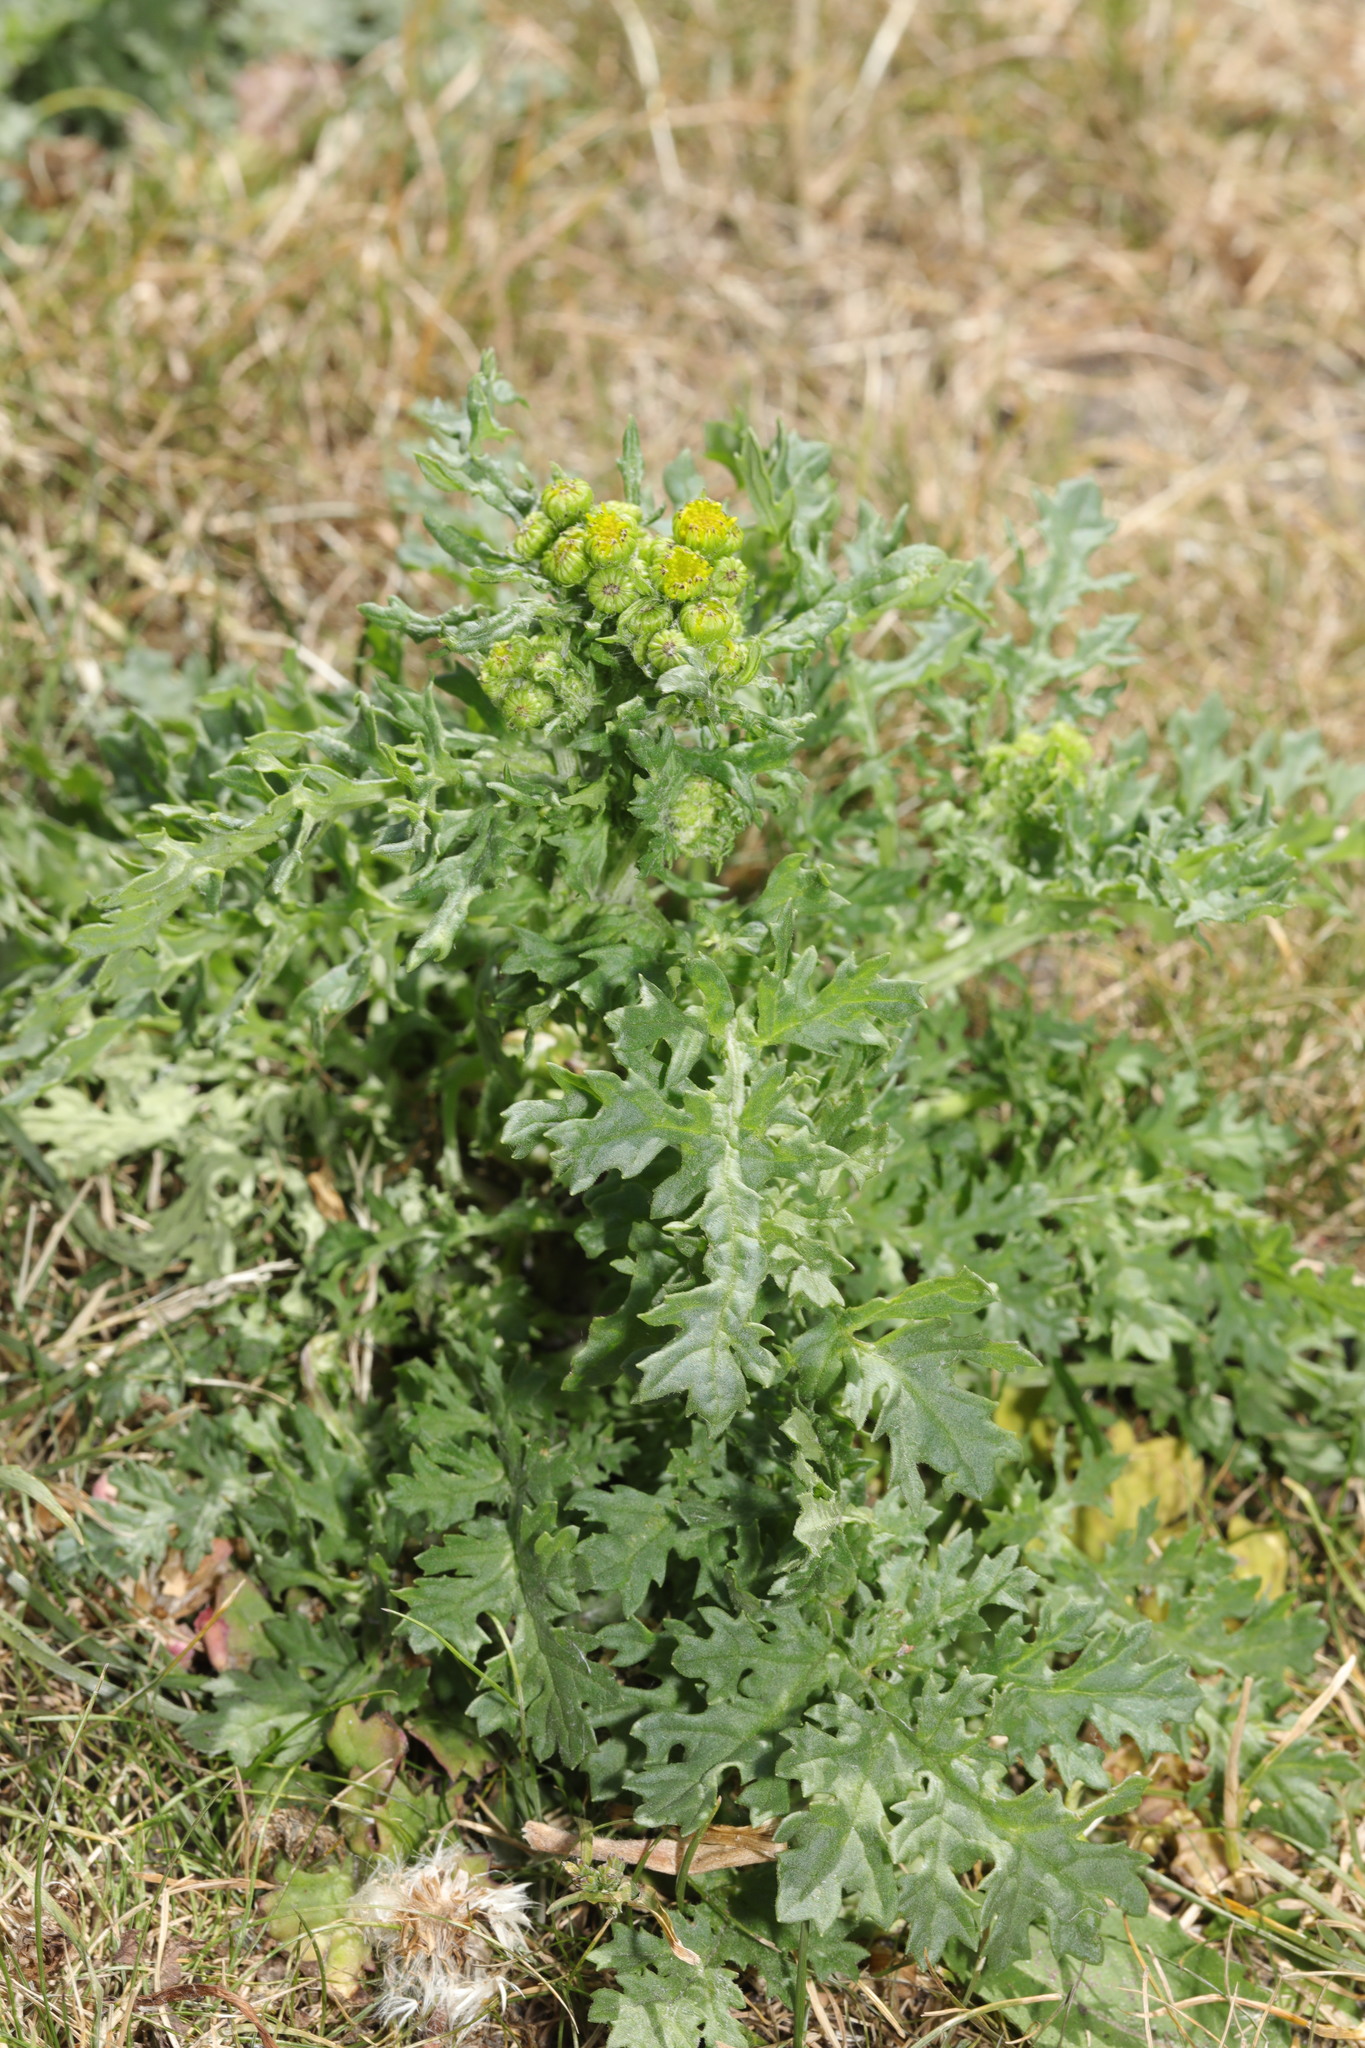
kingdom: Plantae
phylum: Tracheophyta
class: Magnoliopsida
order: Asterales
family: Asteraceae
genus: Jacobaea
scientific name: Jacobaea vulgaris
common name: Stinking willie
